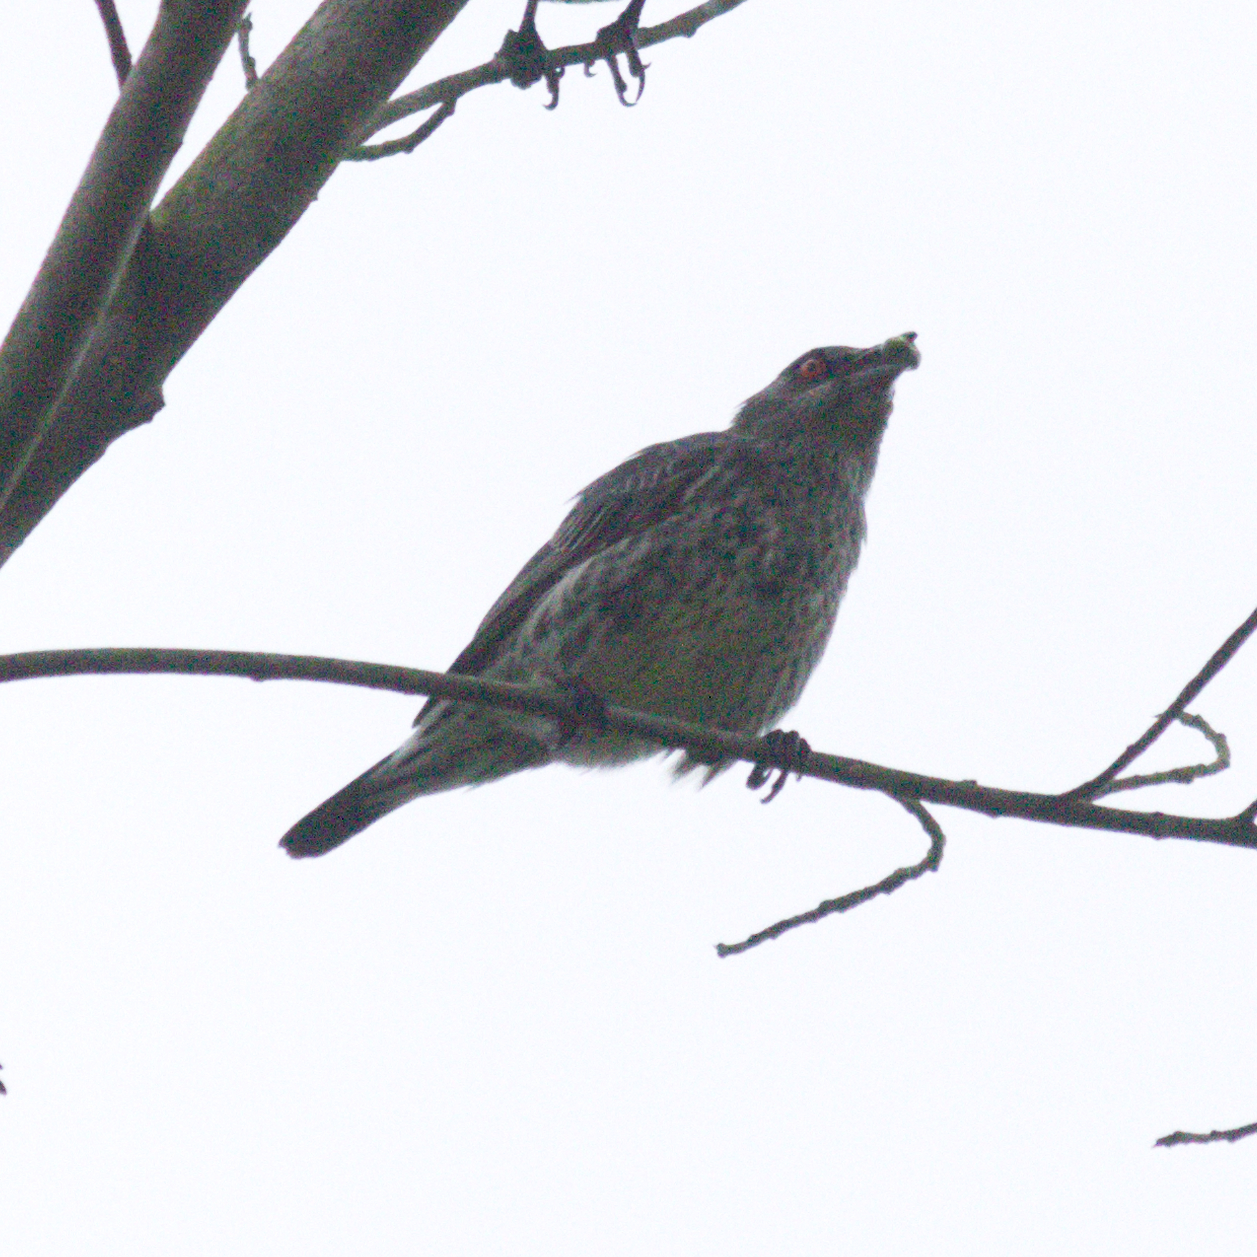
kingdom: Animalia
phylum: Chordata
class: Aves
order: Passeriformes
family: Sturnidae
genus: Aplonis
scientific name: Aplonis panayensis
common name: Asian glossy starling
